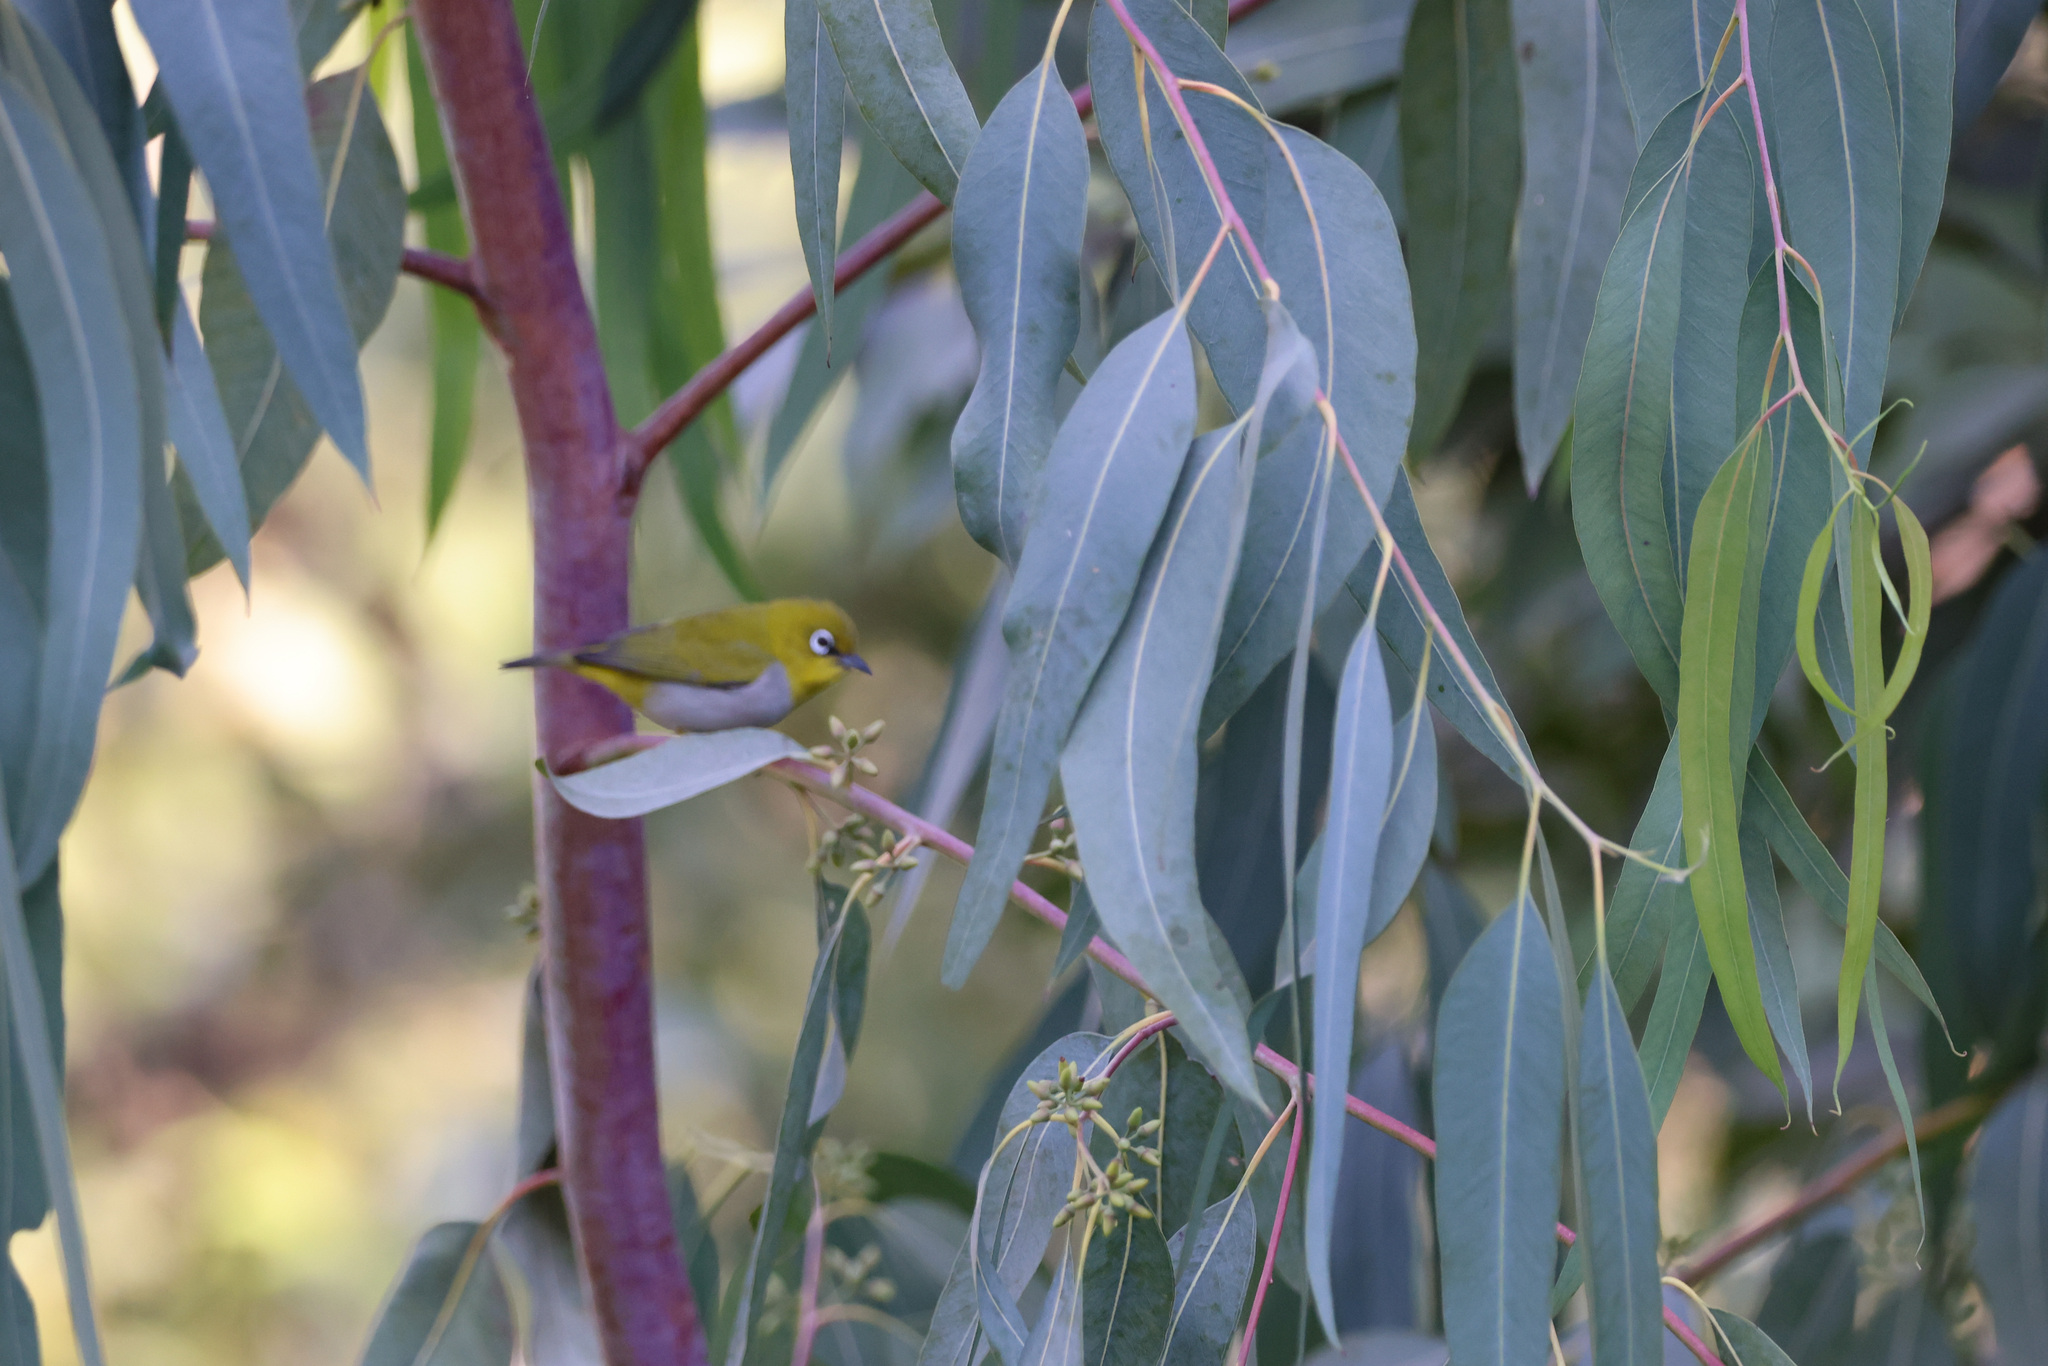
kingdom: Animalia
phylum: Chordata
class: Aves
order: Passeriformes
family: Zosteropidae
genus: Zosterops
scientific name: Zosterops palpebrosus
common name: Oriental white-eye
